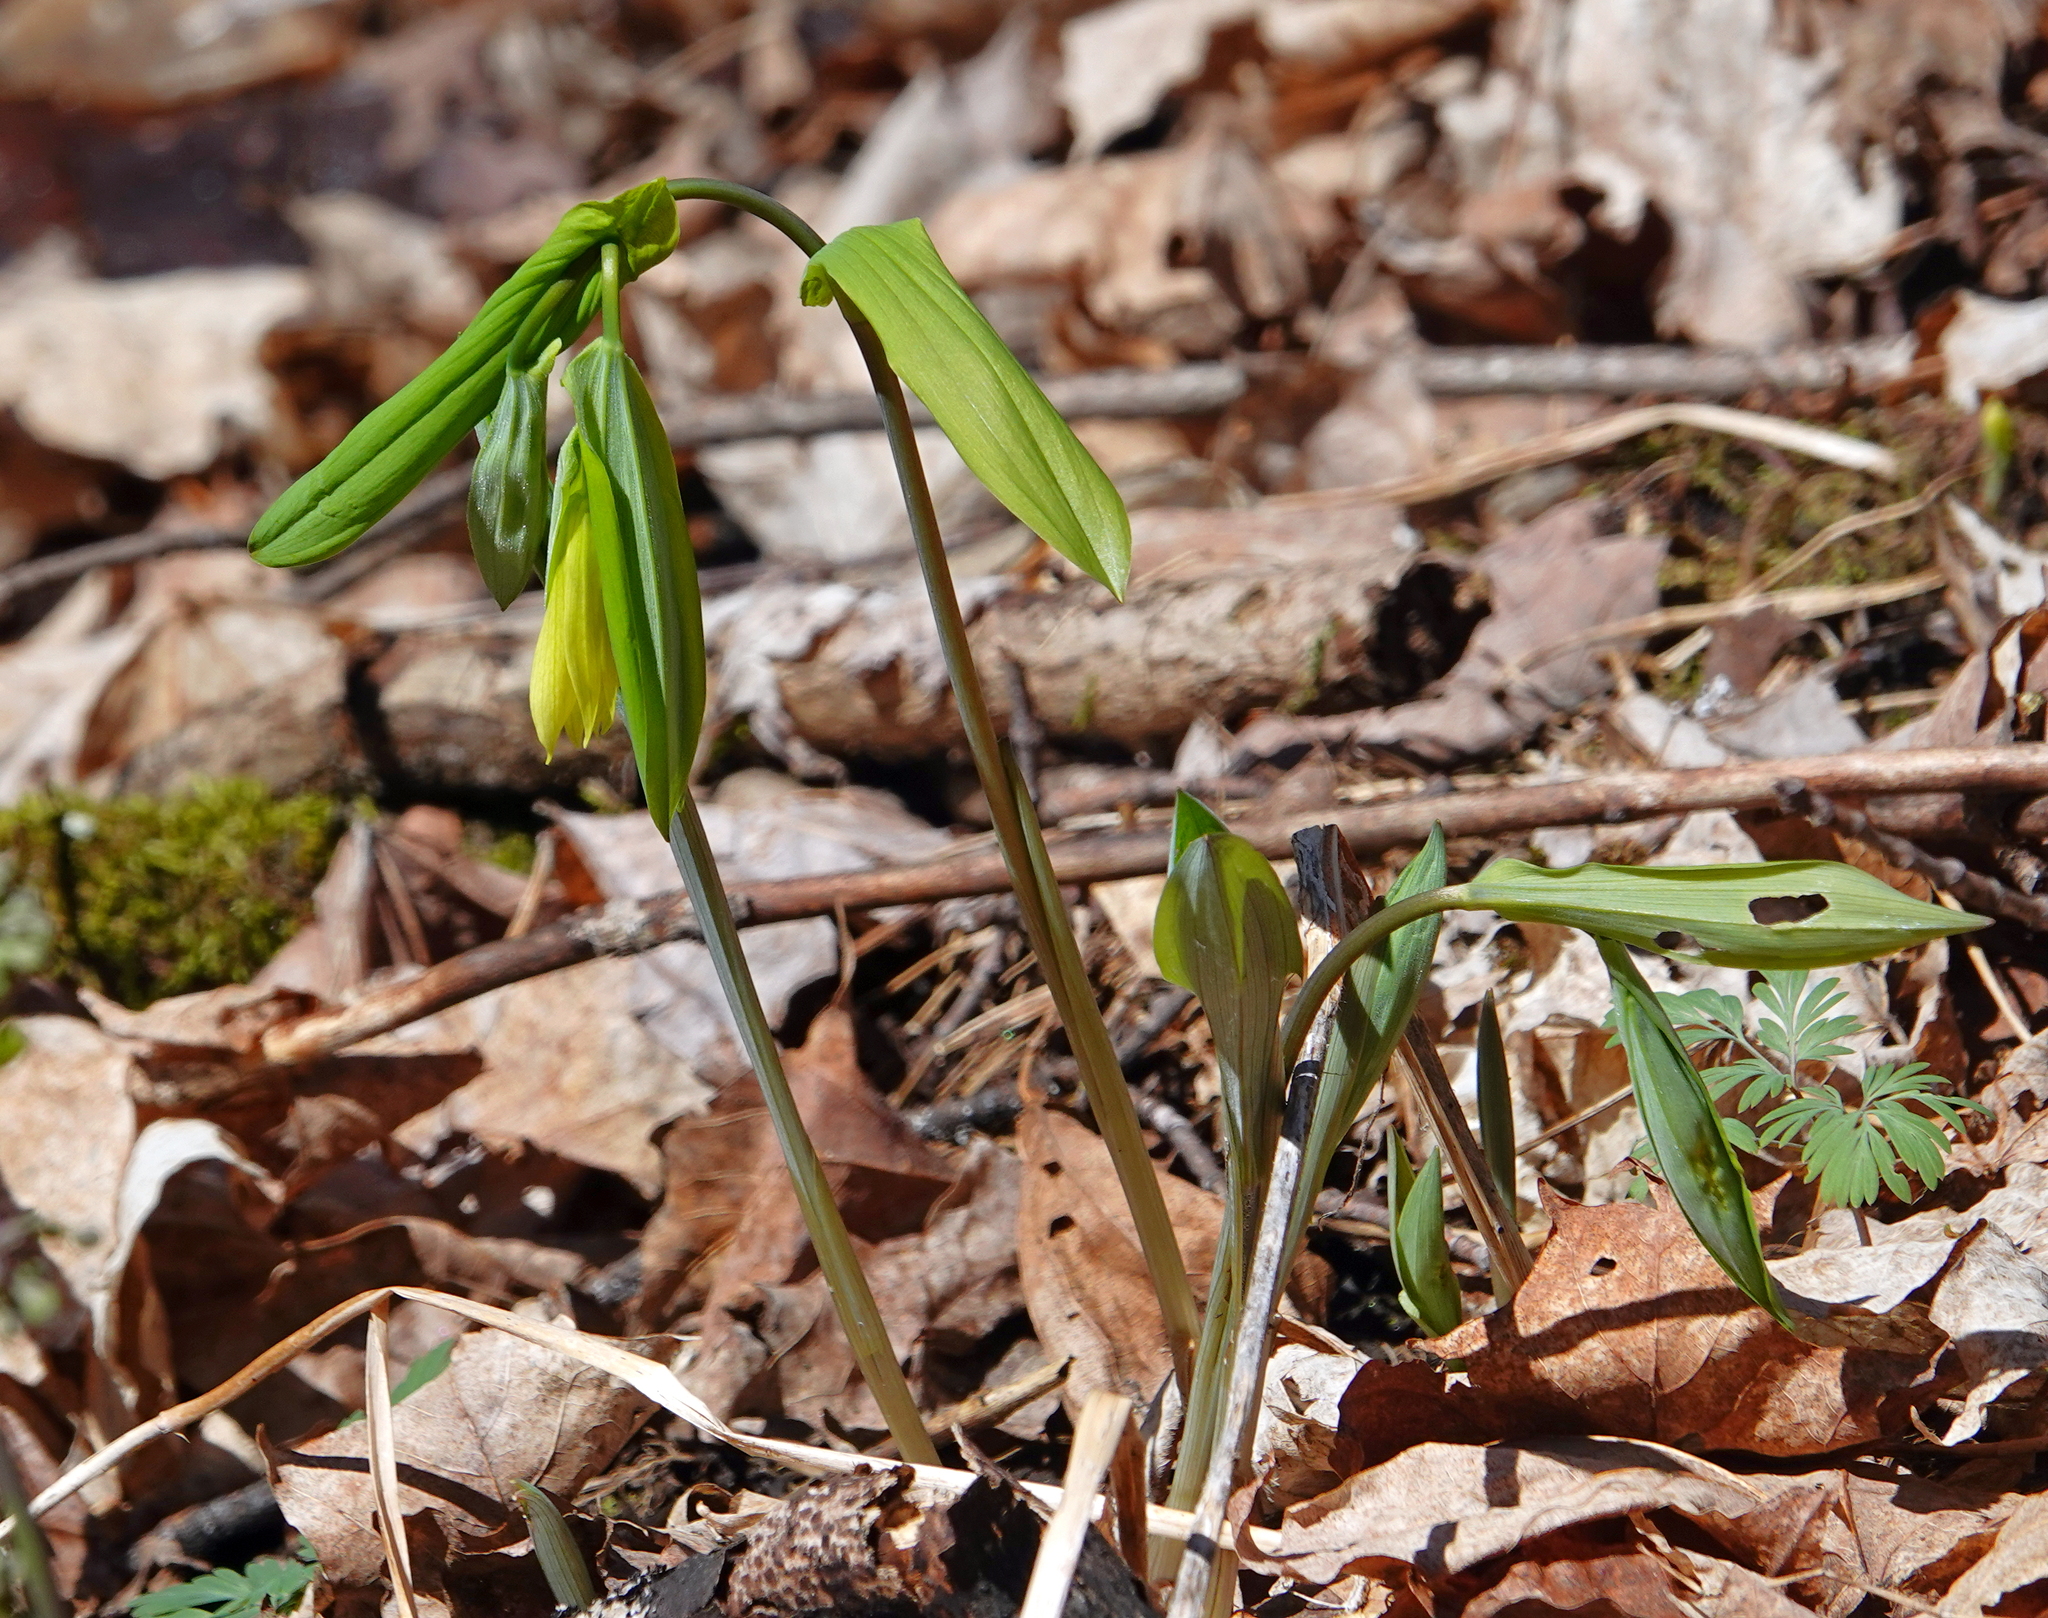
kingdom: Plantae
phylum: Tracheophyta
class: Liliopsida
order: Liliales
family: Colchicaceae
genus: Uvularia
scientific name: Uvularia grandiflora
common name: Bellwort
